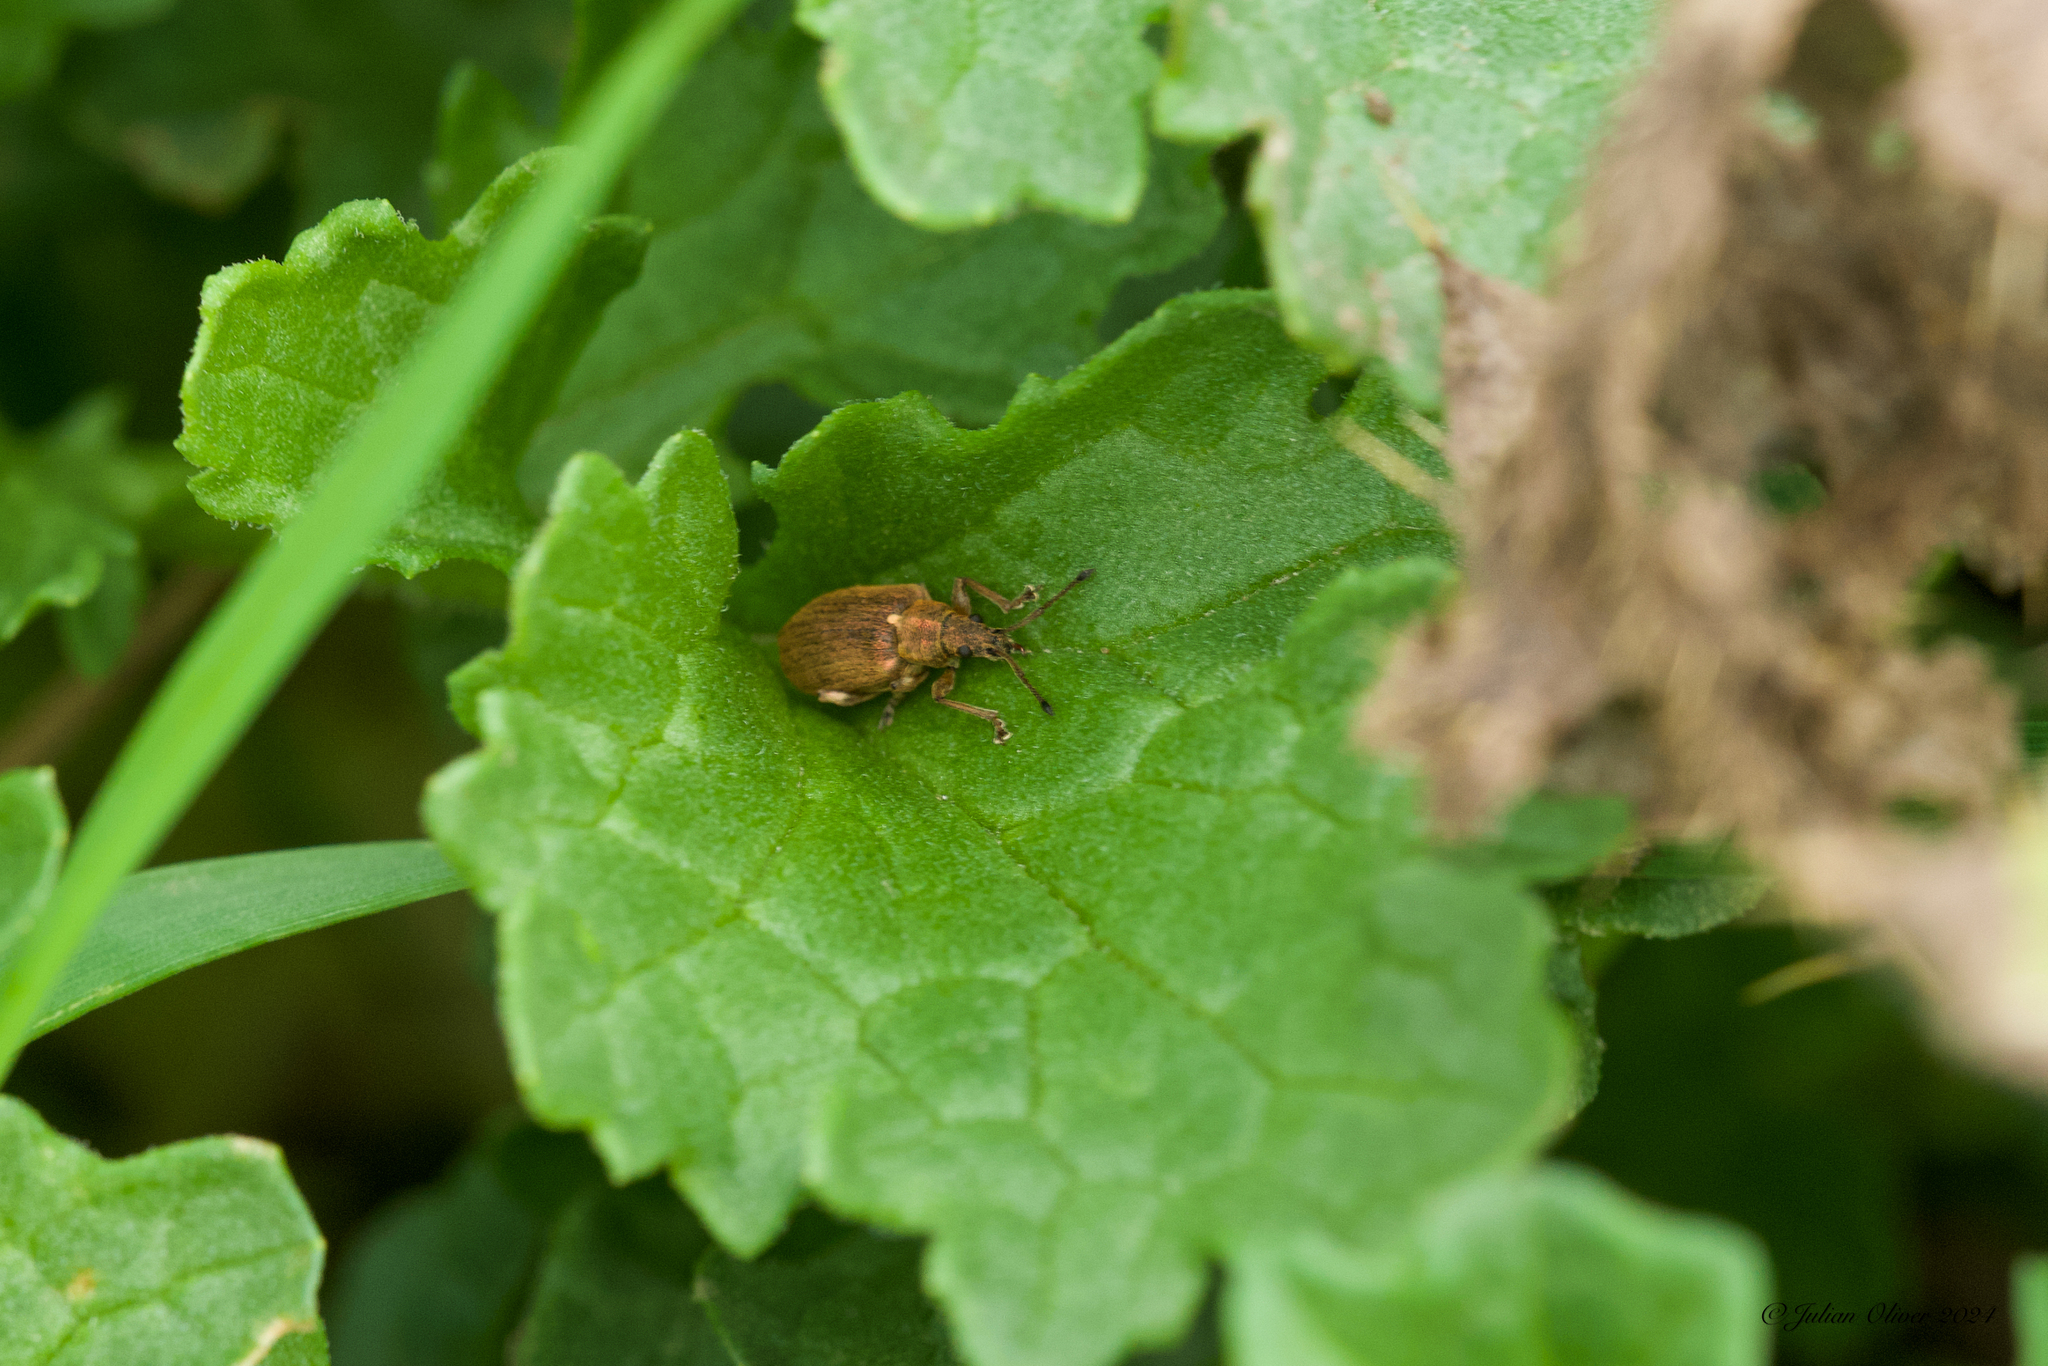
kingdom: Animalia
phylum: Arthropoda
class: Insecta
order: Coleoptera
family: Curculionidae
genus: Phyllobius
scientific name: Phyllobius pyri
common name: Common leaf weevil
